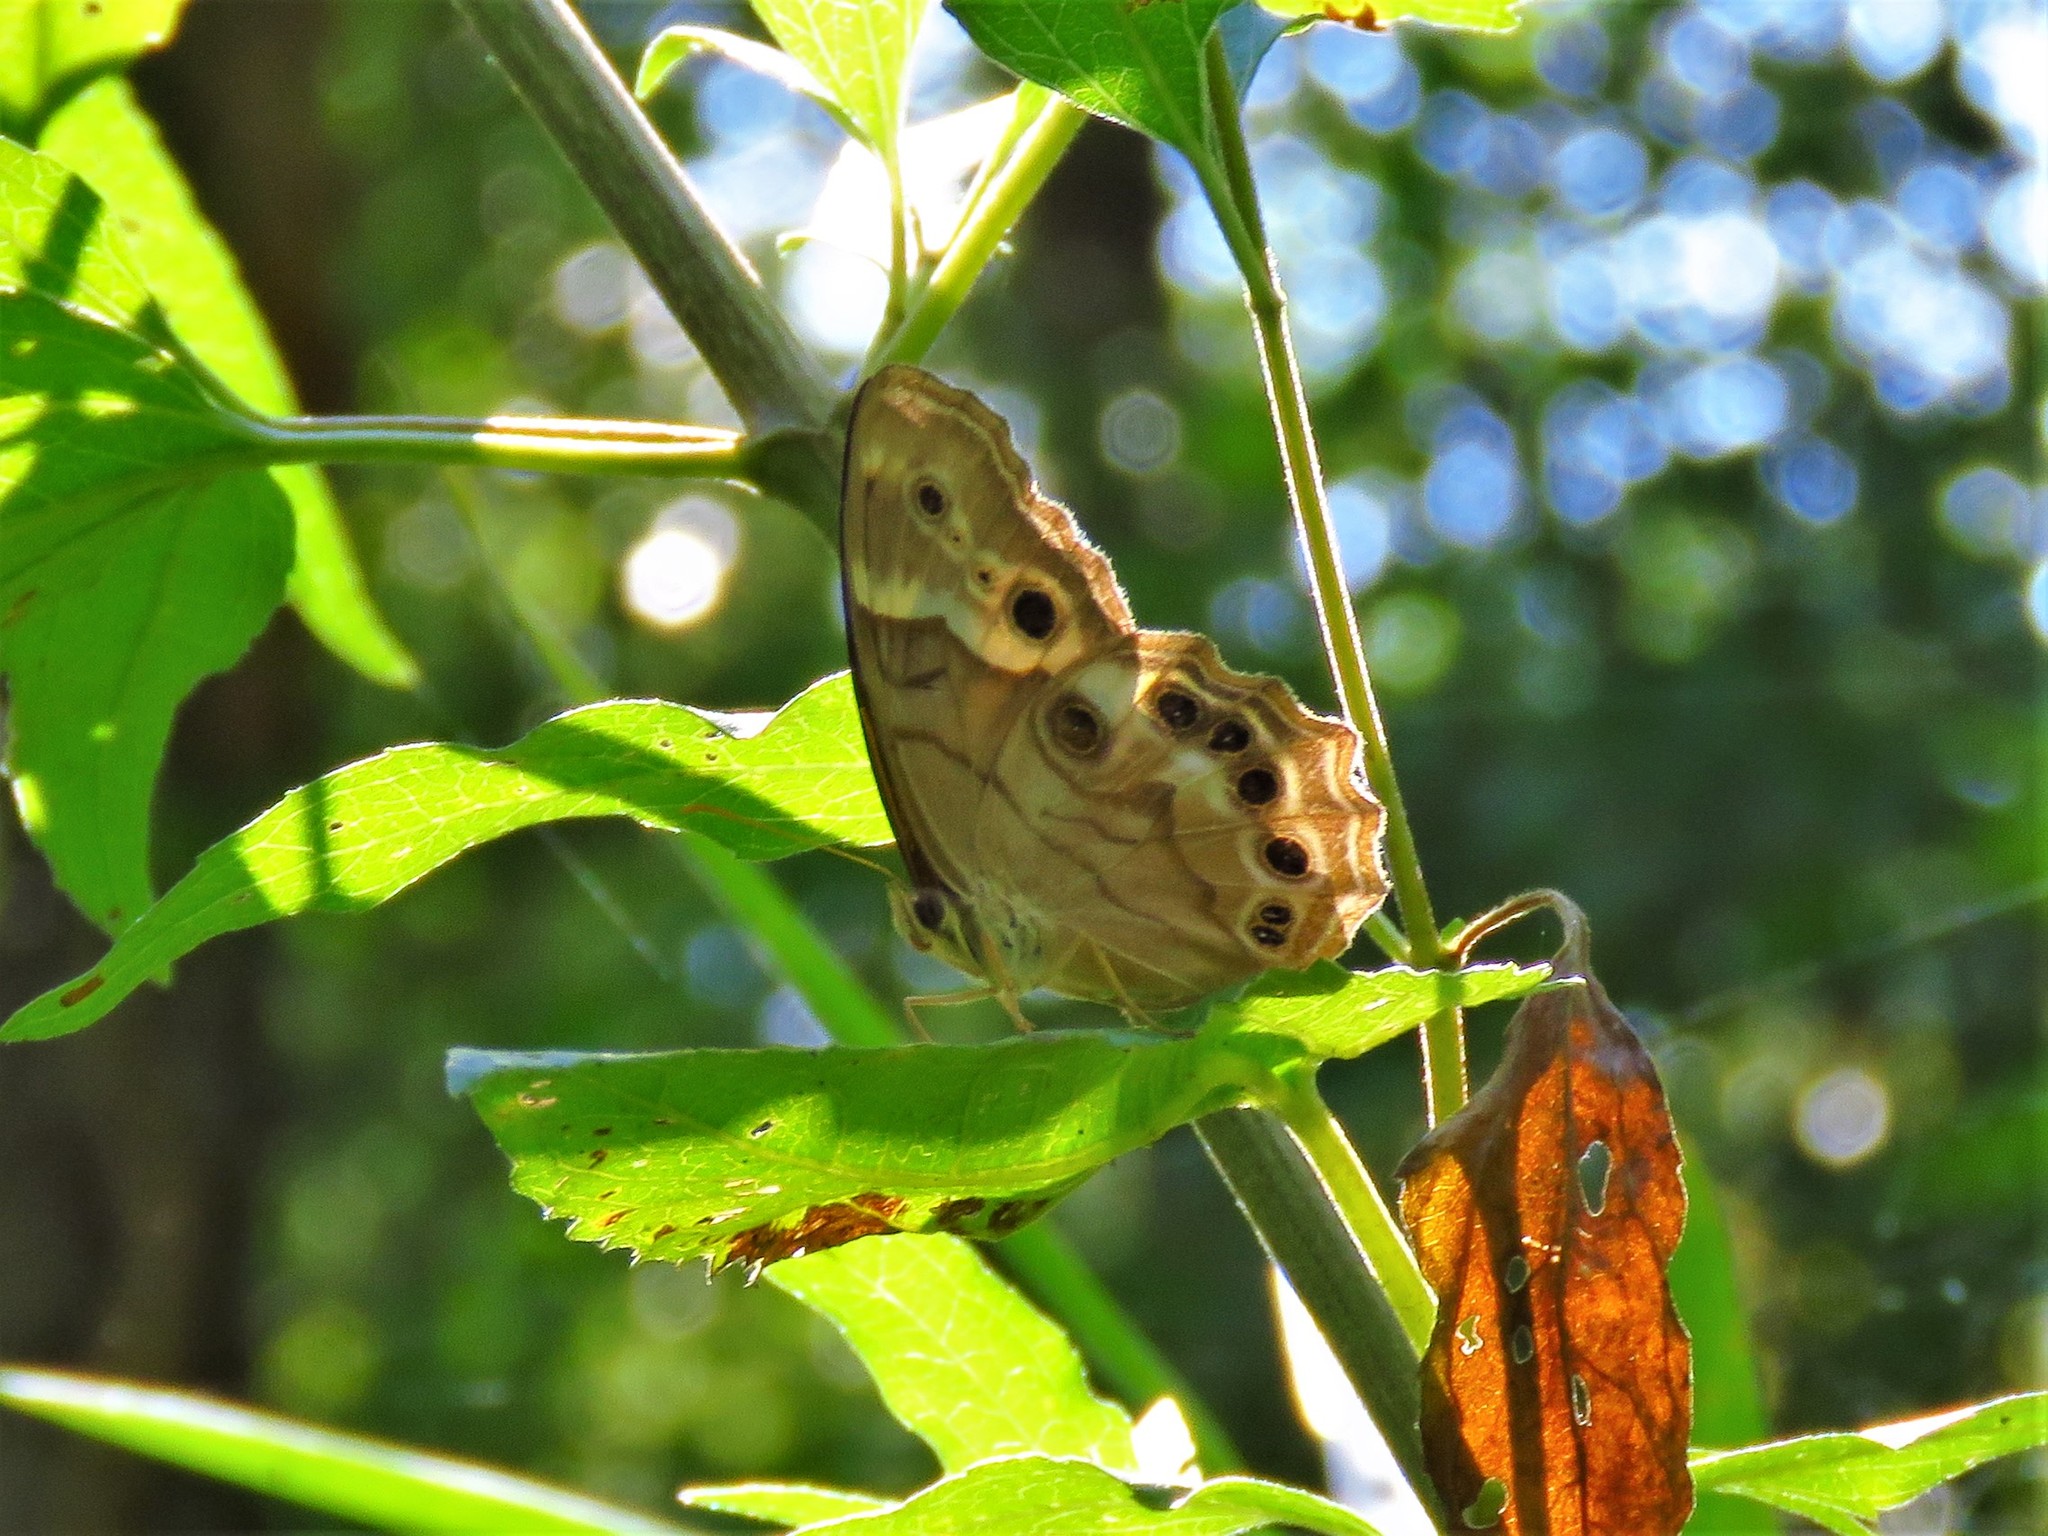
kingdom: Animalia
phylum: Arthropoda
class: Insecta
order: Lepidoptera
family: Nymphalidae
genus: Enodia
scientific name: Enodia portlandia
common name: Southern pearly-eye
